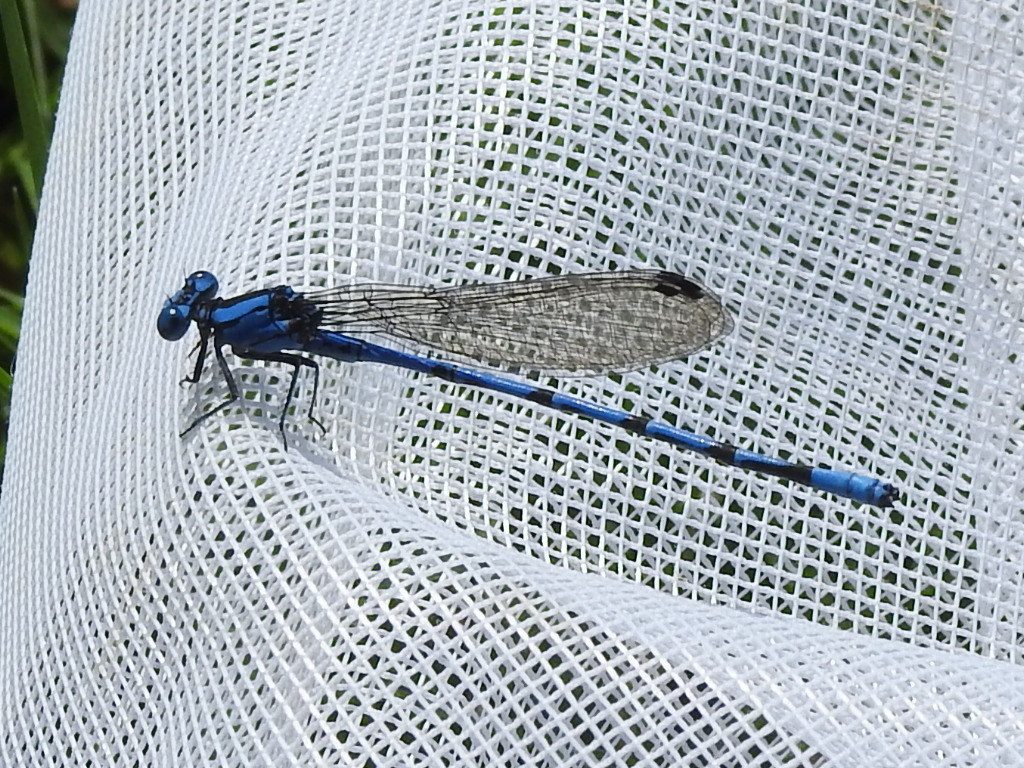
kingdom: Animalia
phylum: Arthropoda
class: Insecta
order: Odonata
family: Coenagrionidae
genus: Argia
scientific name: Argia funebris
